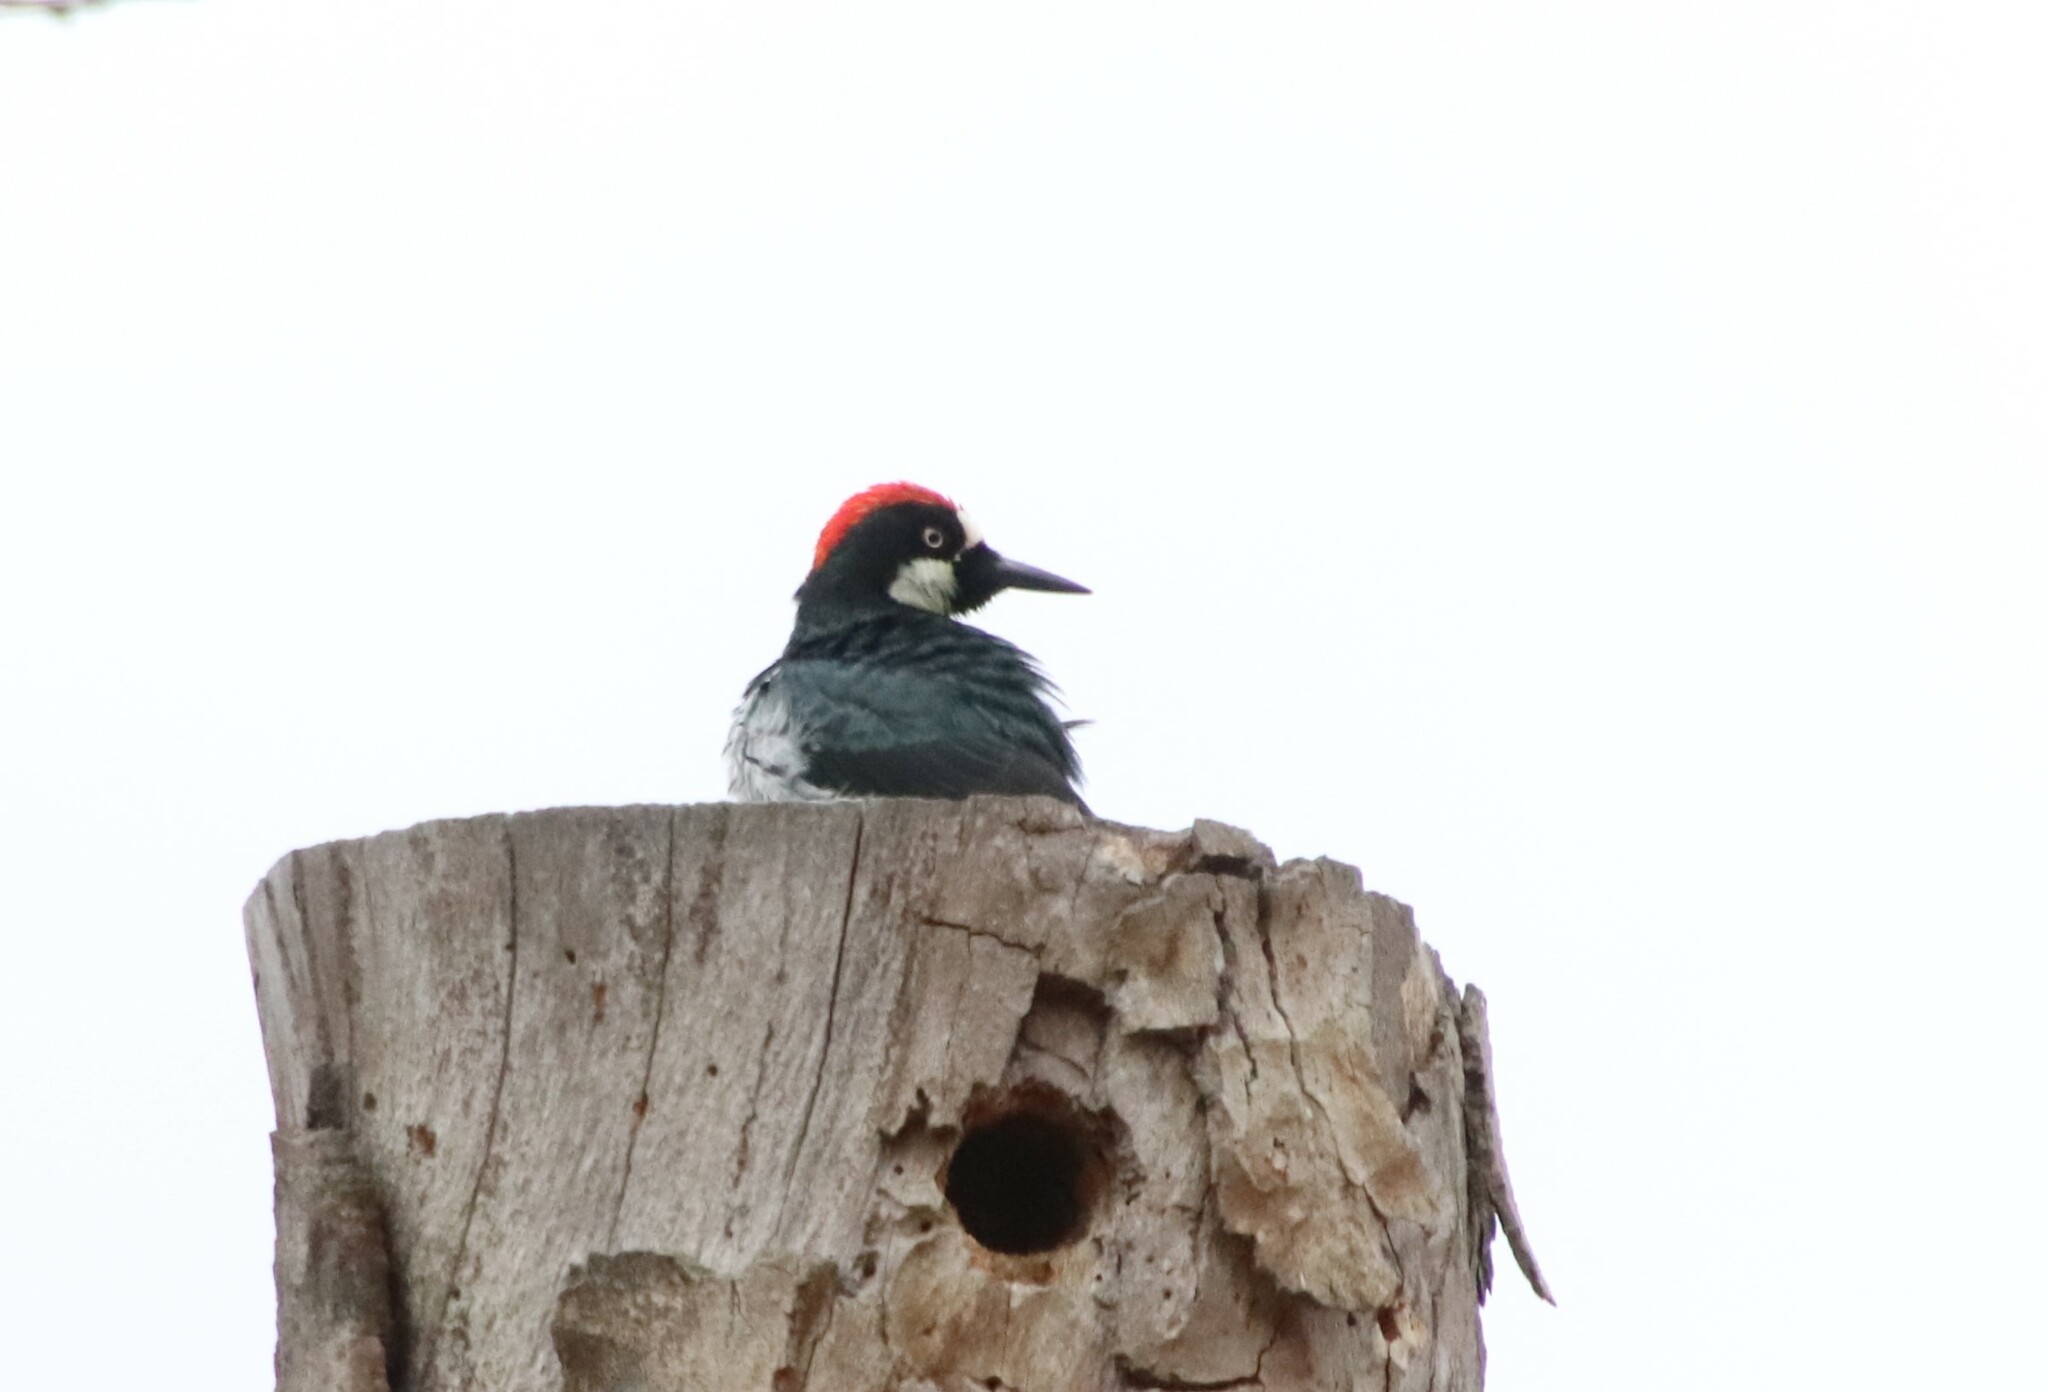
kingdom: Animalia
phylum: Chordata
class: Aves
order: Piciformes
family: Picidae
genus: Melanerpes
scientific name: Melanerpes formicivorus
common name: Acorn woodpecker
